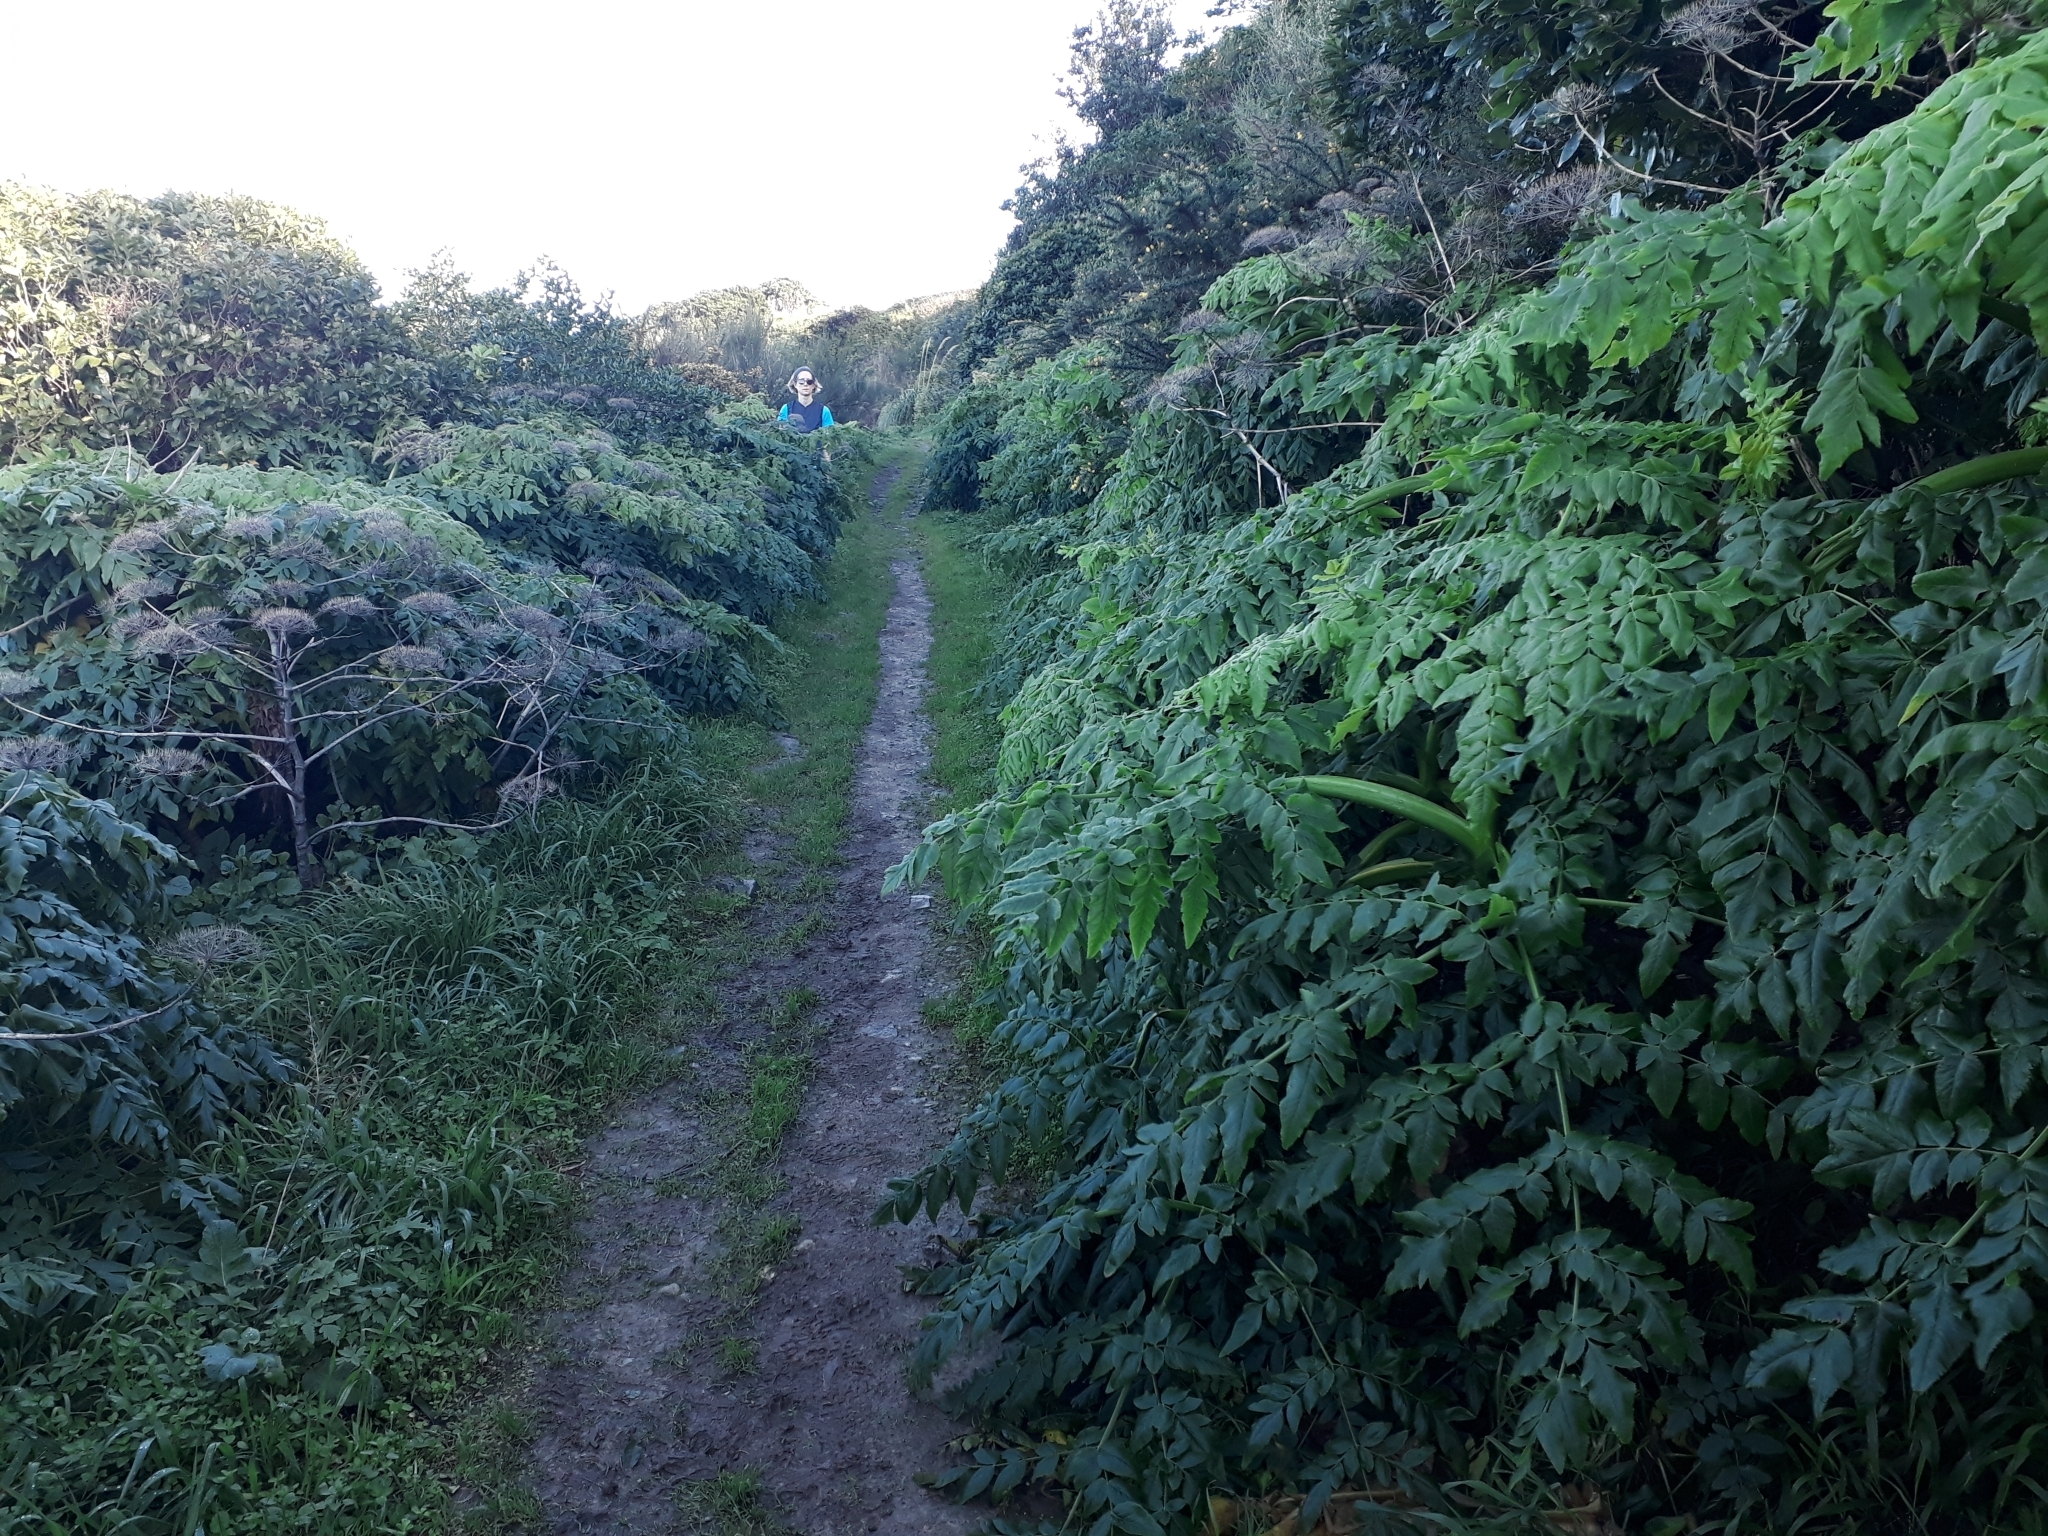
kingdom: Plantae
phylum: Tracheophyta
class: Magnoliopsida
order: Apiales
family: Apiaceae
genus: Daucus
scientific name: Daucus decipiens
